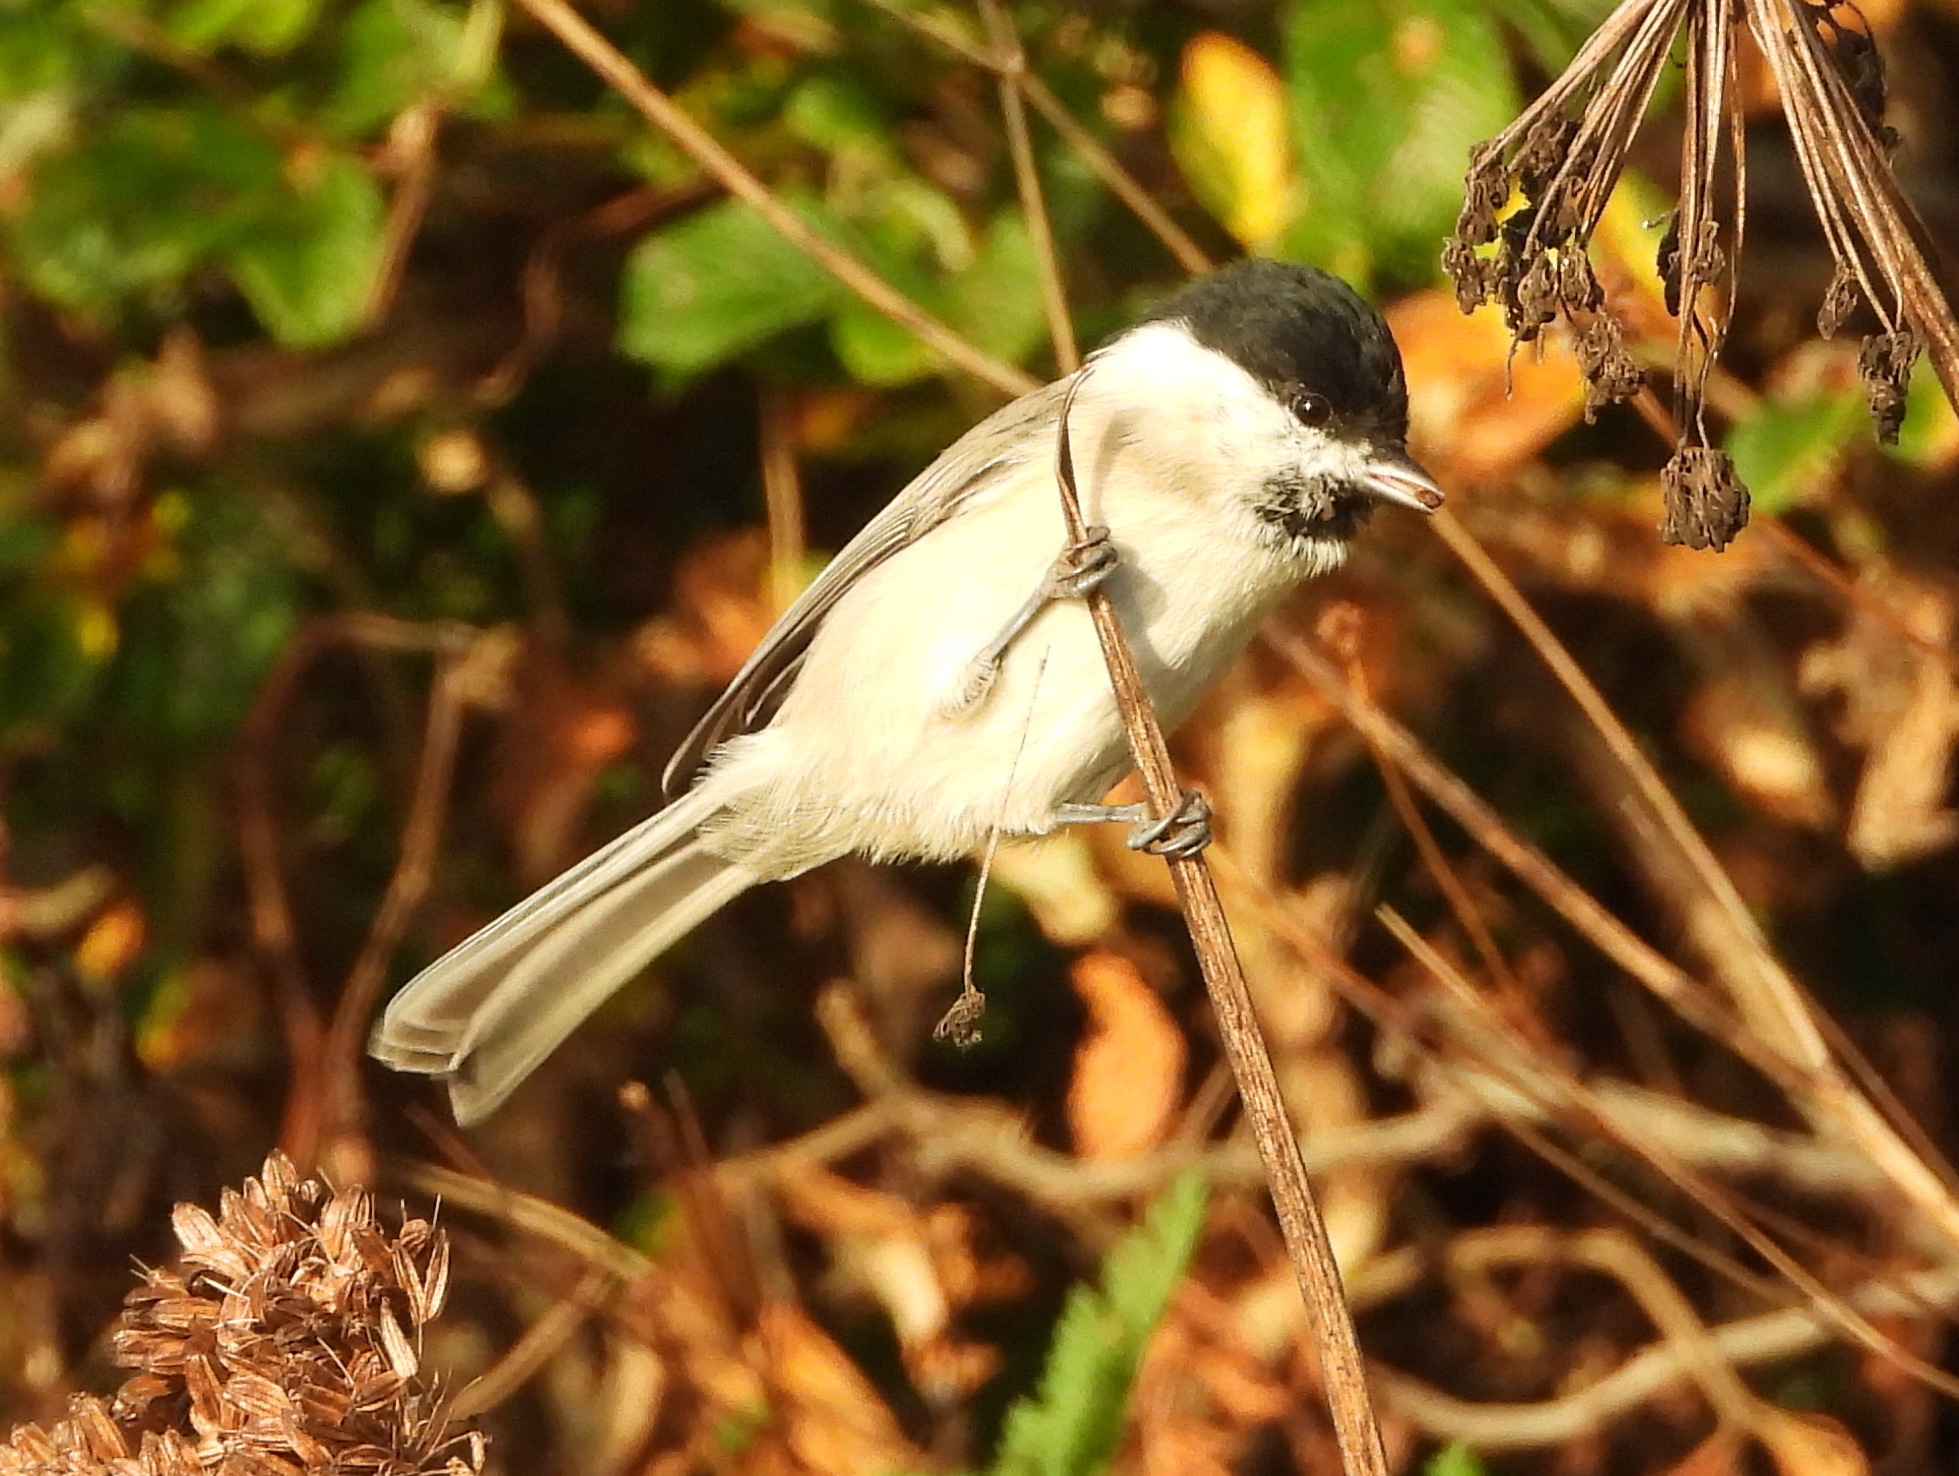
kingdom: Animalia
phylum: Chordata
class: Aves
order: Passeriformes
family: Paridae
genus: Poecile
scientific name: Poecile palustris
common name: Marsh tit
